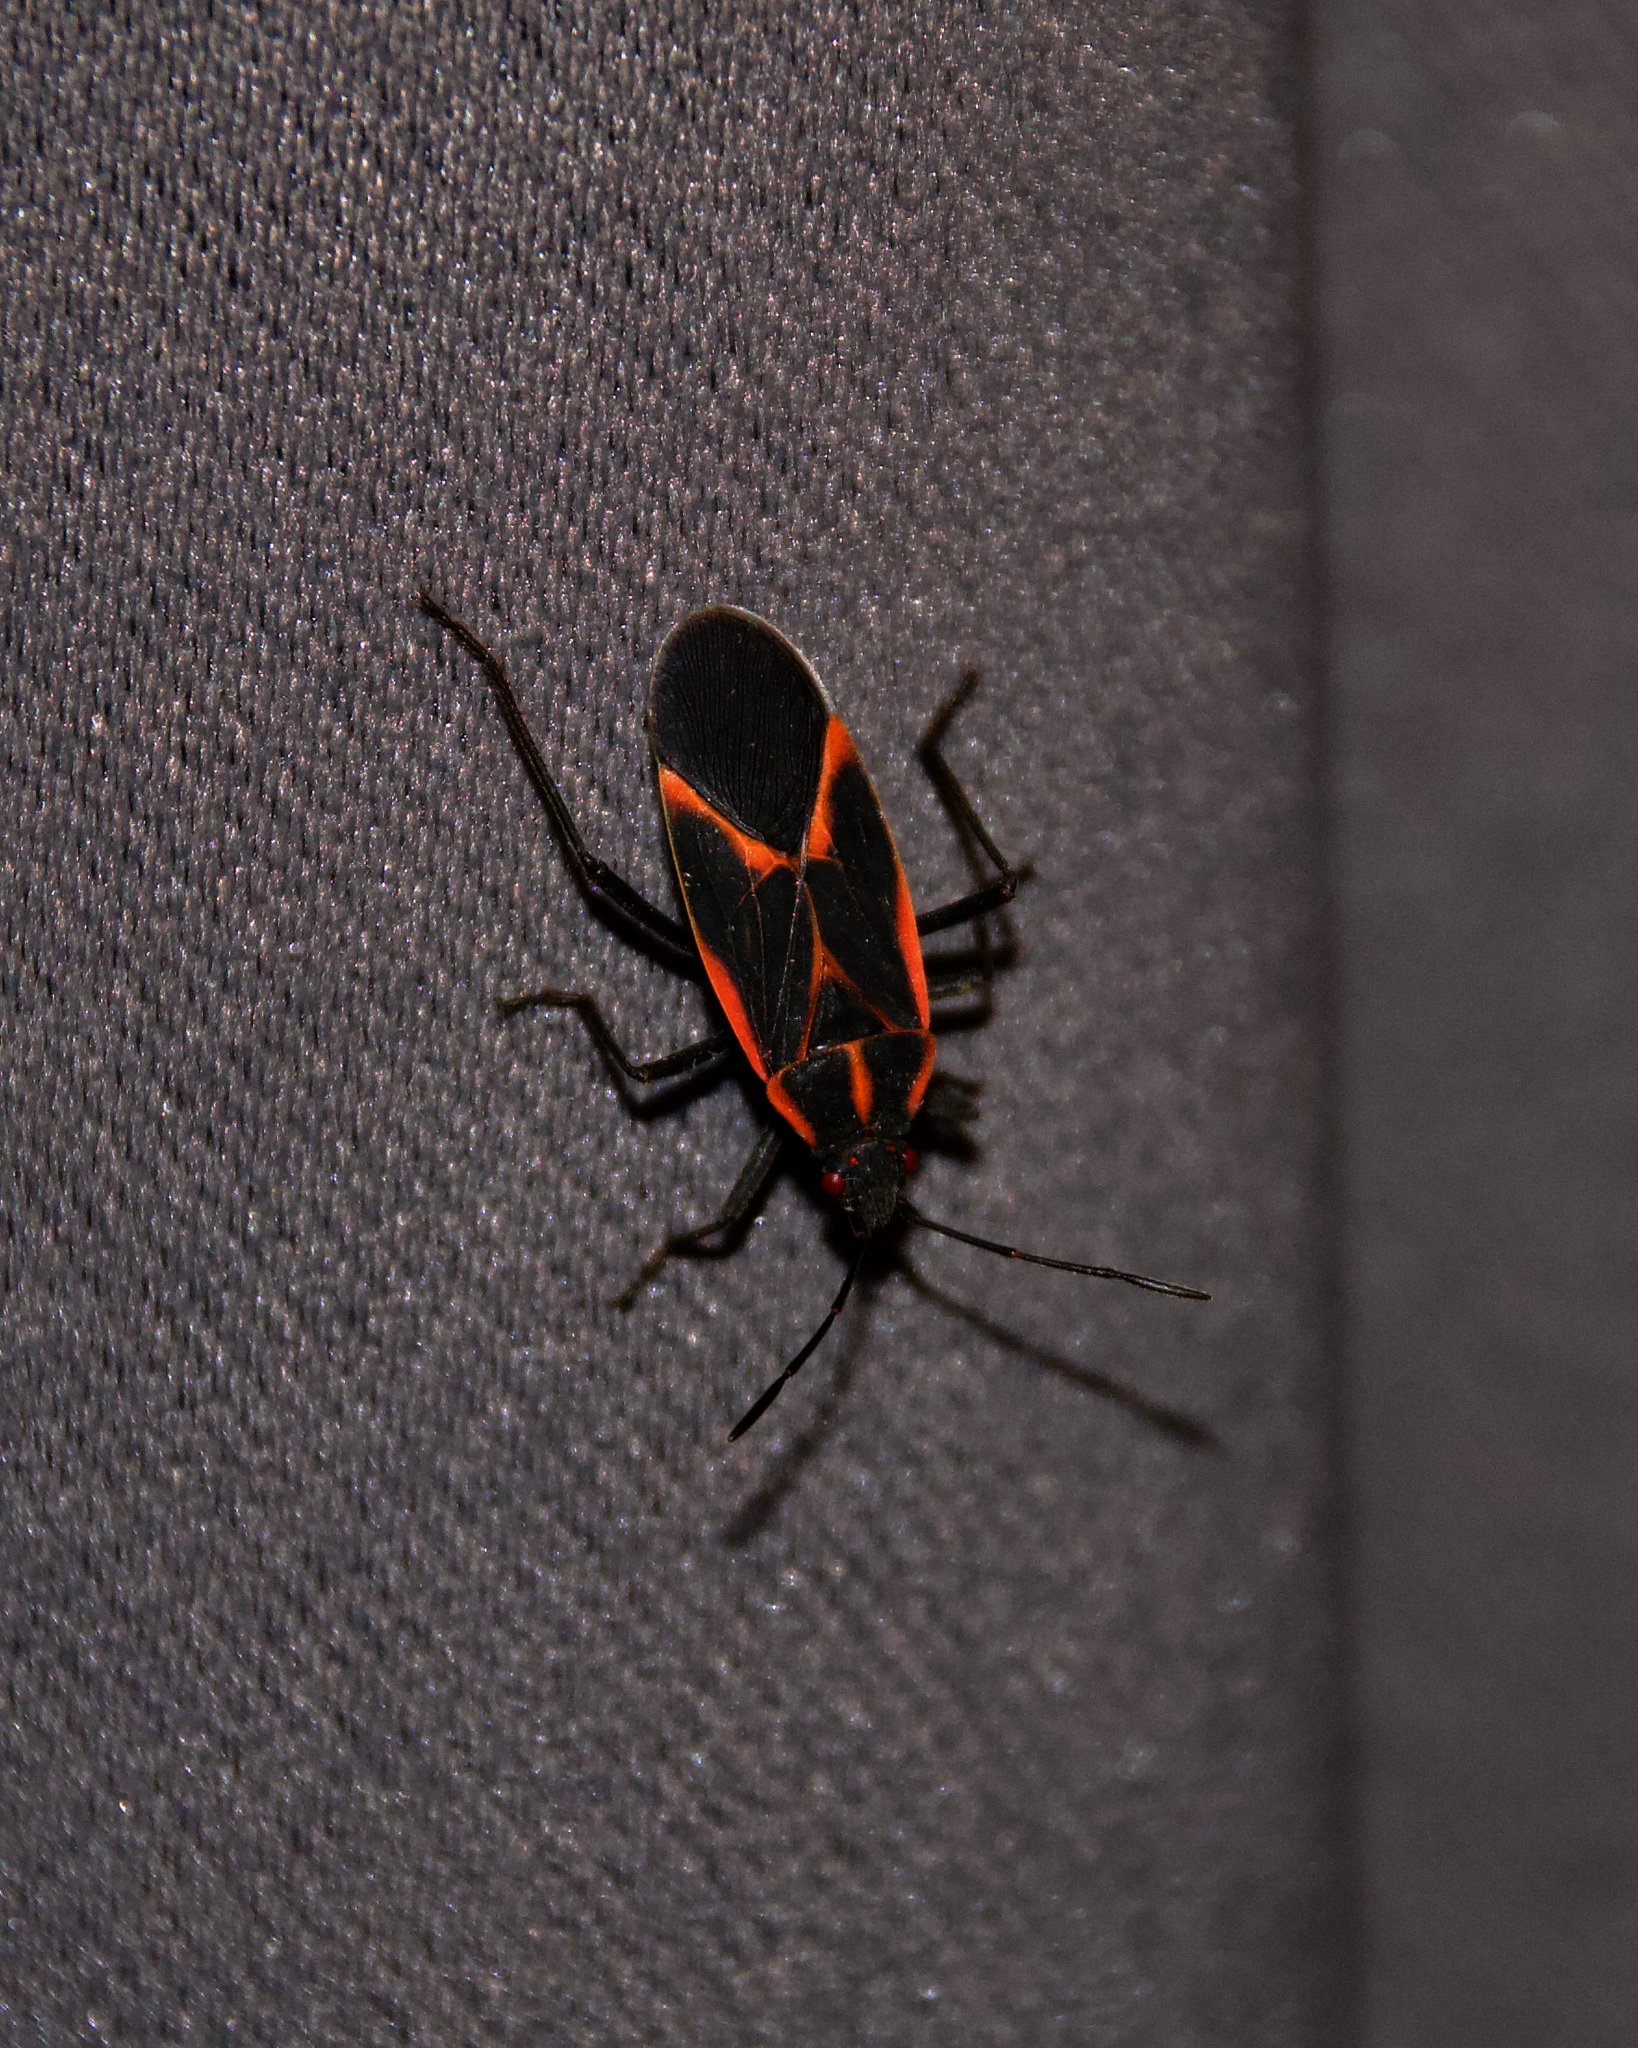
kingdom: Animalia
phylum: Arthropoda
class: Insecta
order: Hemiptera
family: Rhopalidae
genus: Boisea
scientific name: Boisea trivittata
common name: Boxelder bug
